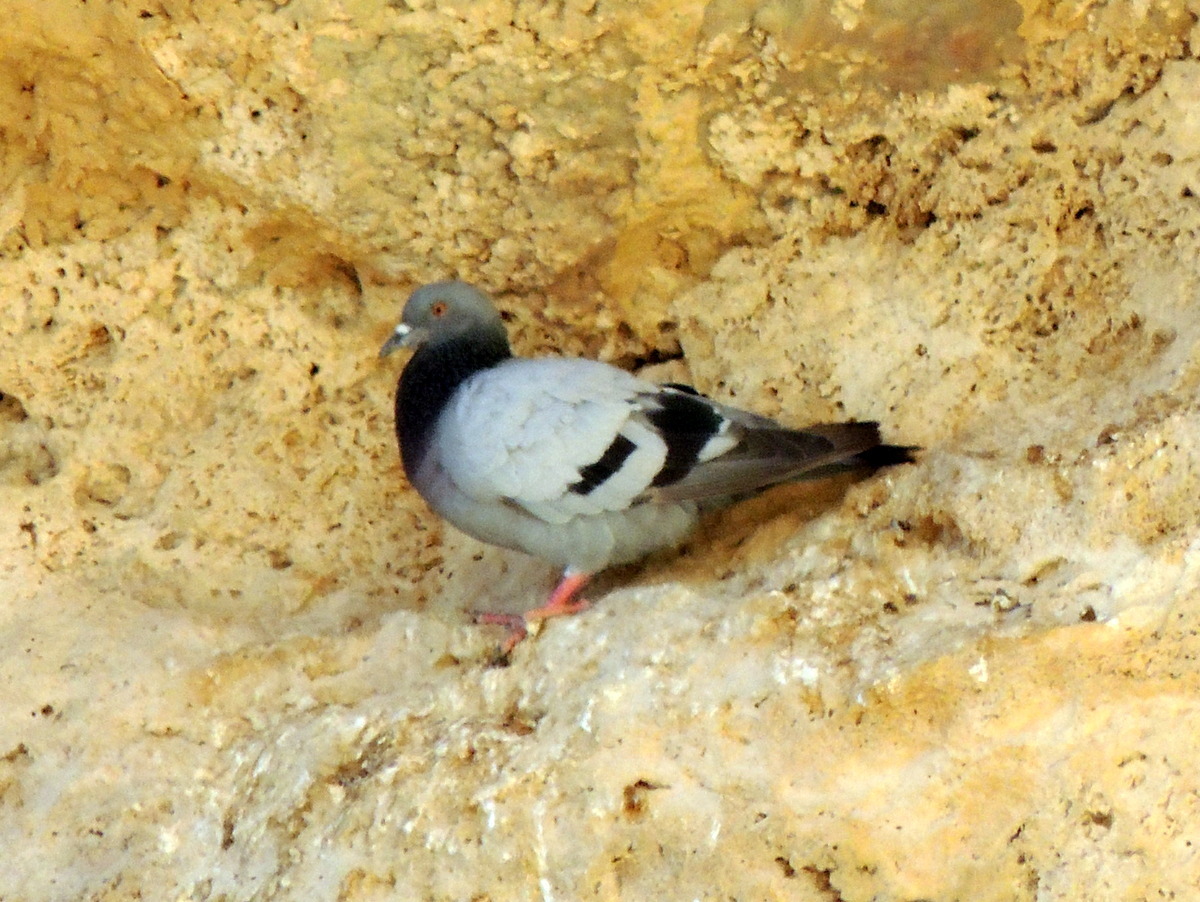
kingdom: Animalia
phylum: Chordata
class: Aves
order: Columbiformes
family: Columbidae
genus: Columba
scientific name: Columba livia
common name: Rock pigeon
